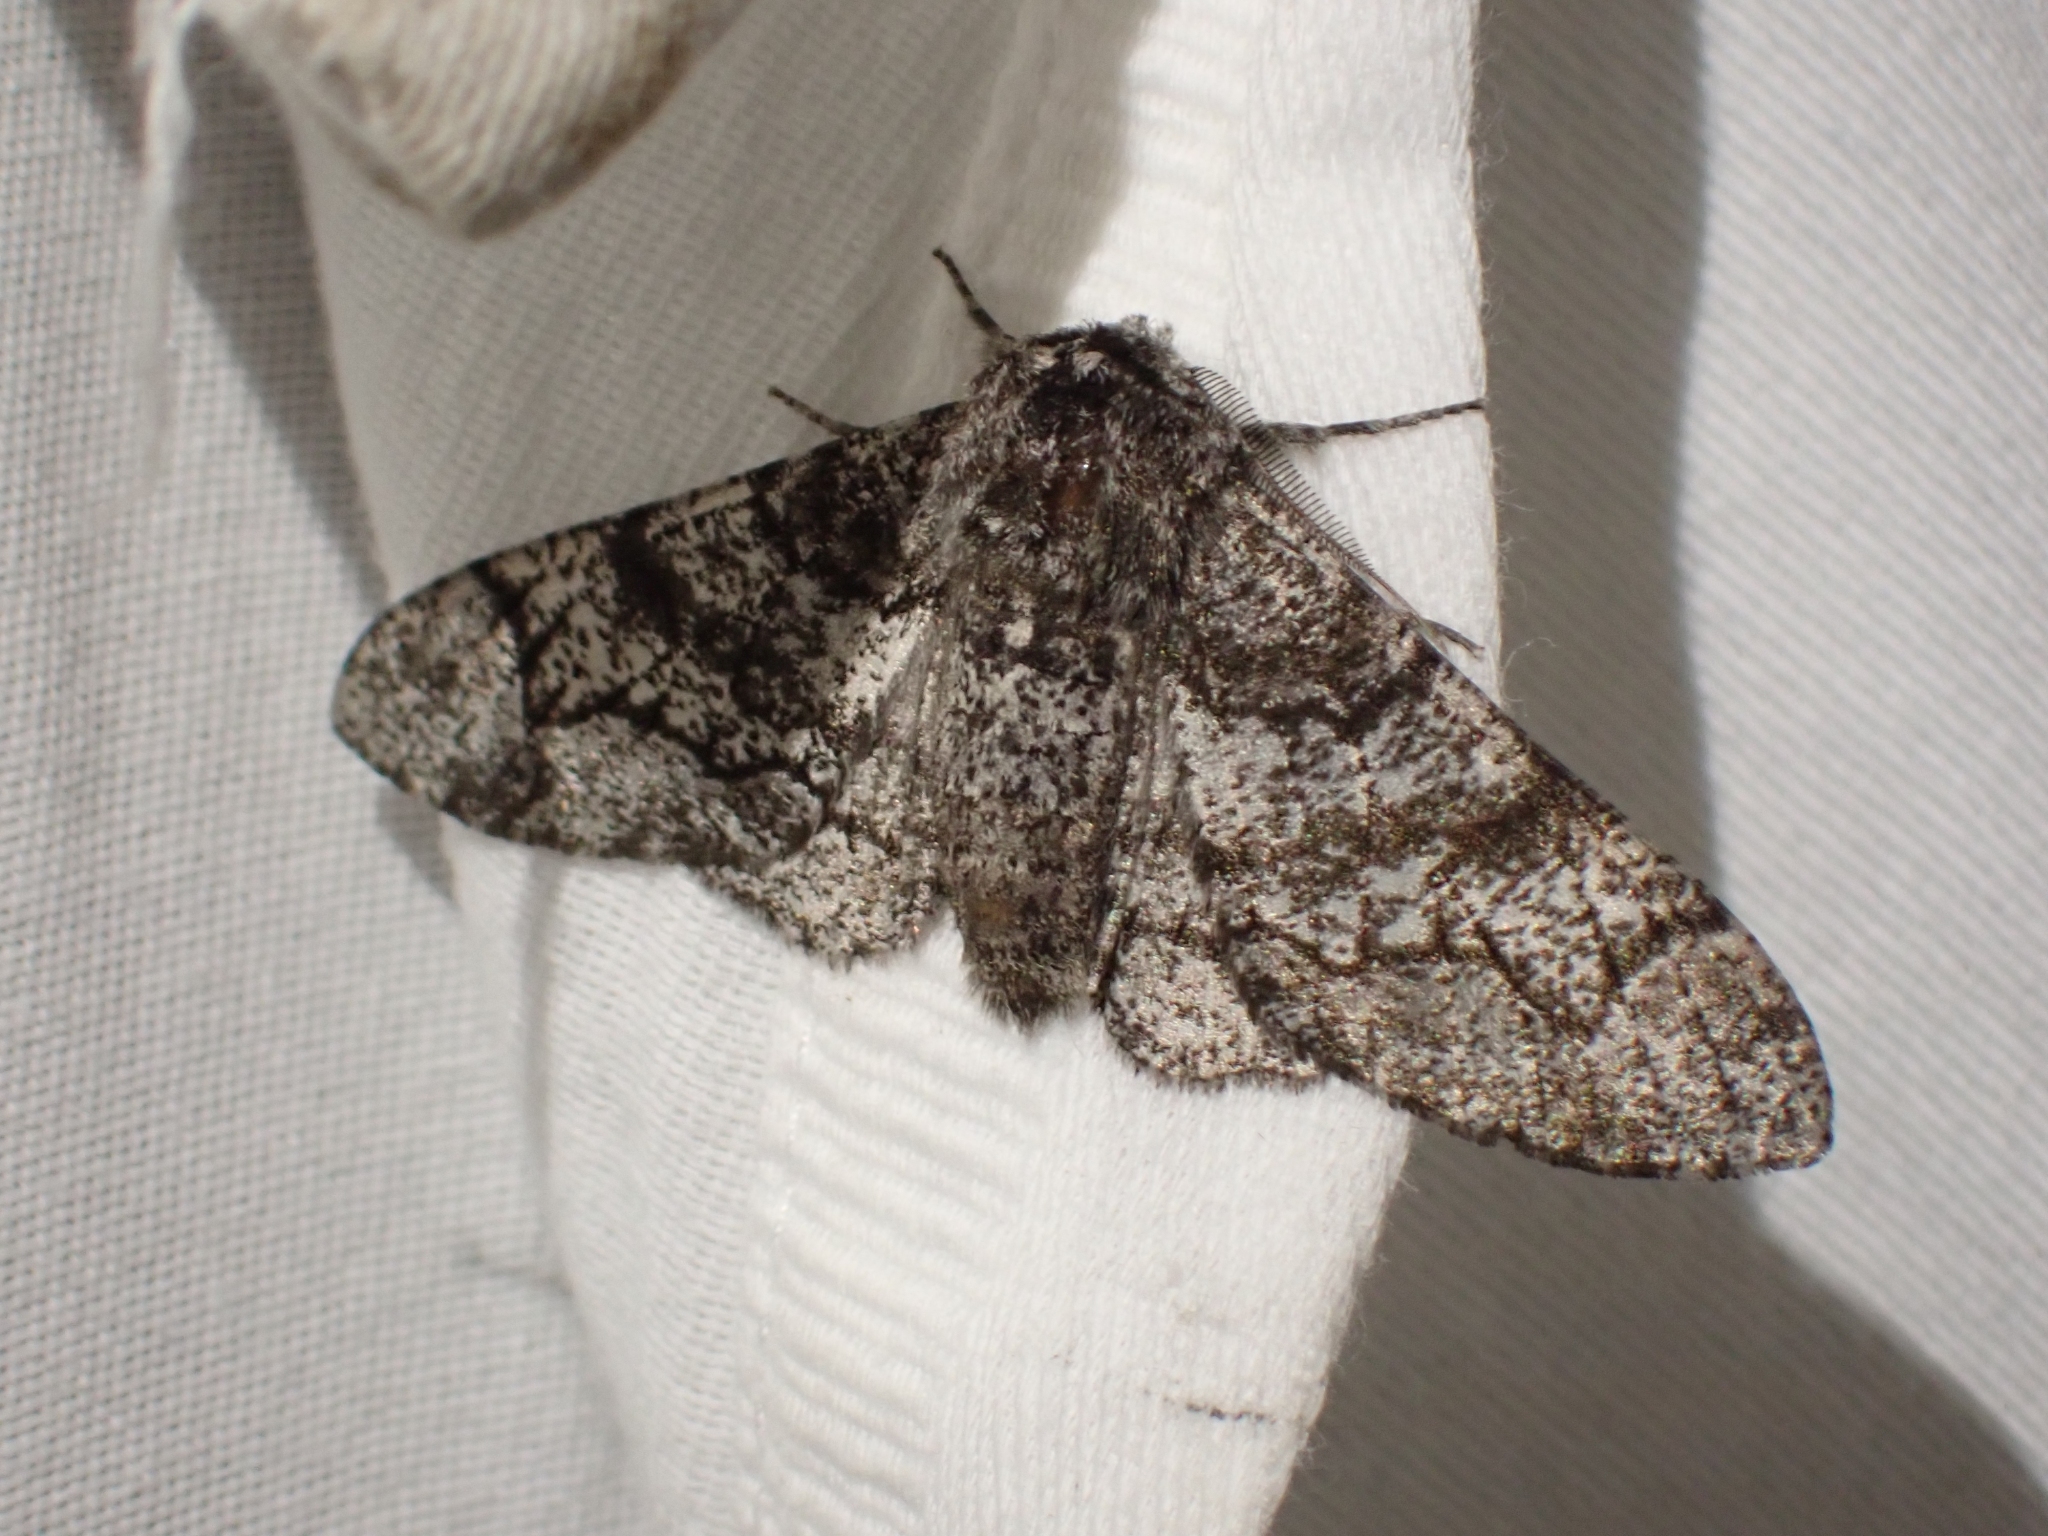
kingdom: Animalia
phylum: Arthropoda
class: Insecta
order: Lepidoptera
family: Geometridae
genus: Biston
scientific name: Biston betularia
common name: Peppered moth
